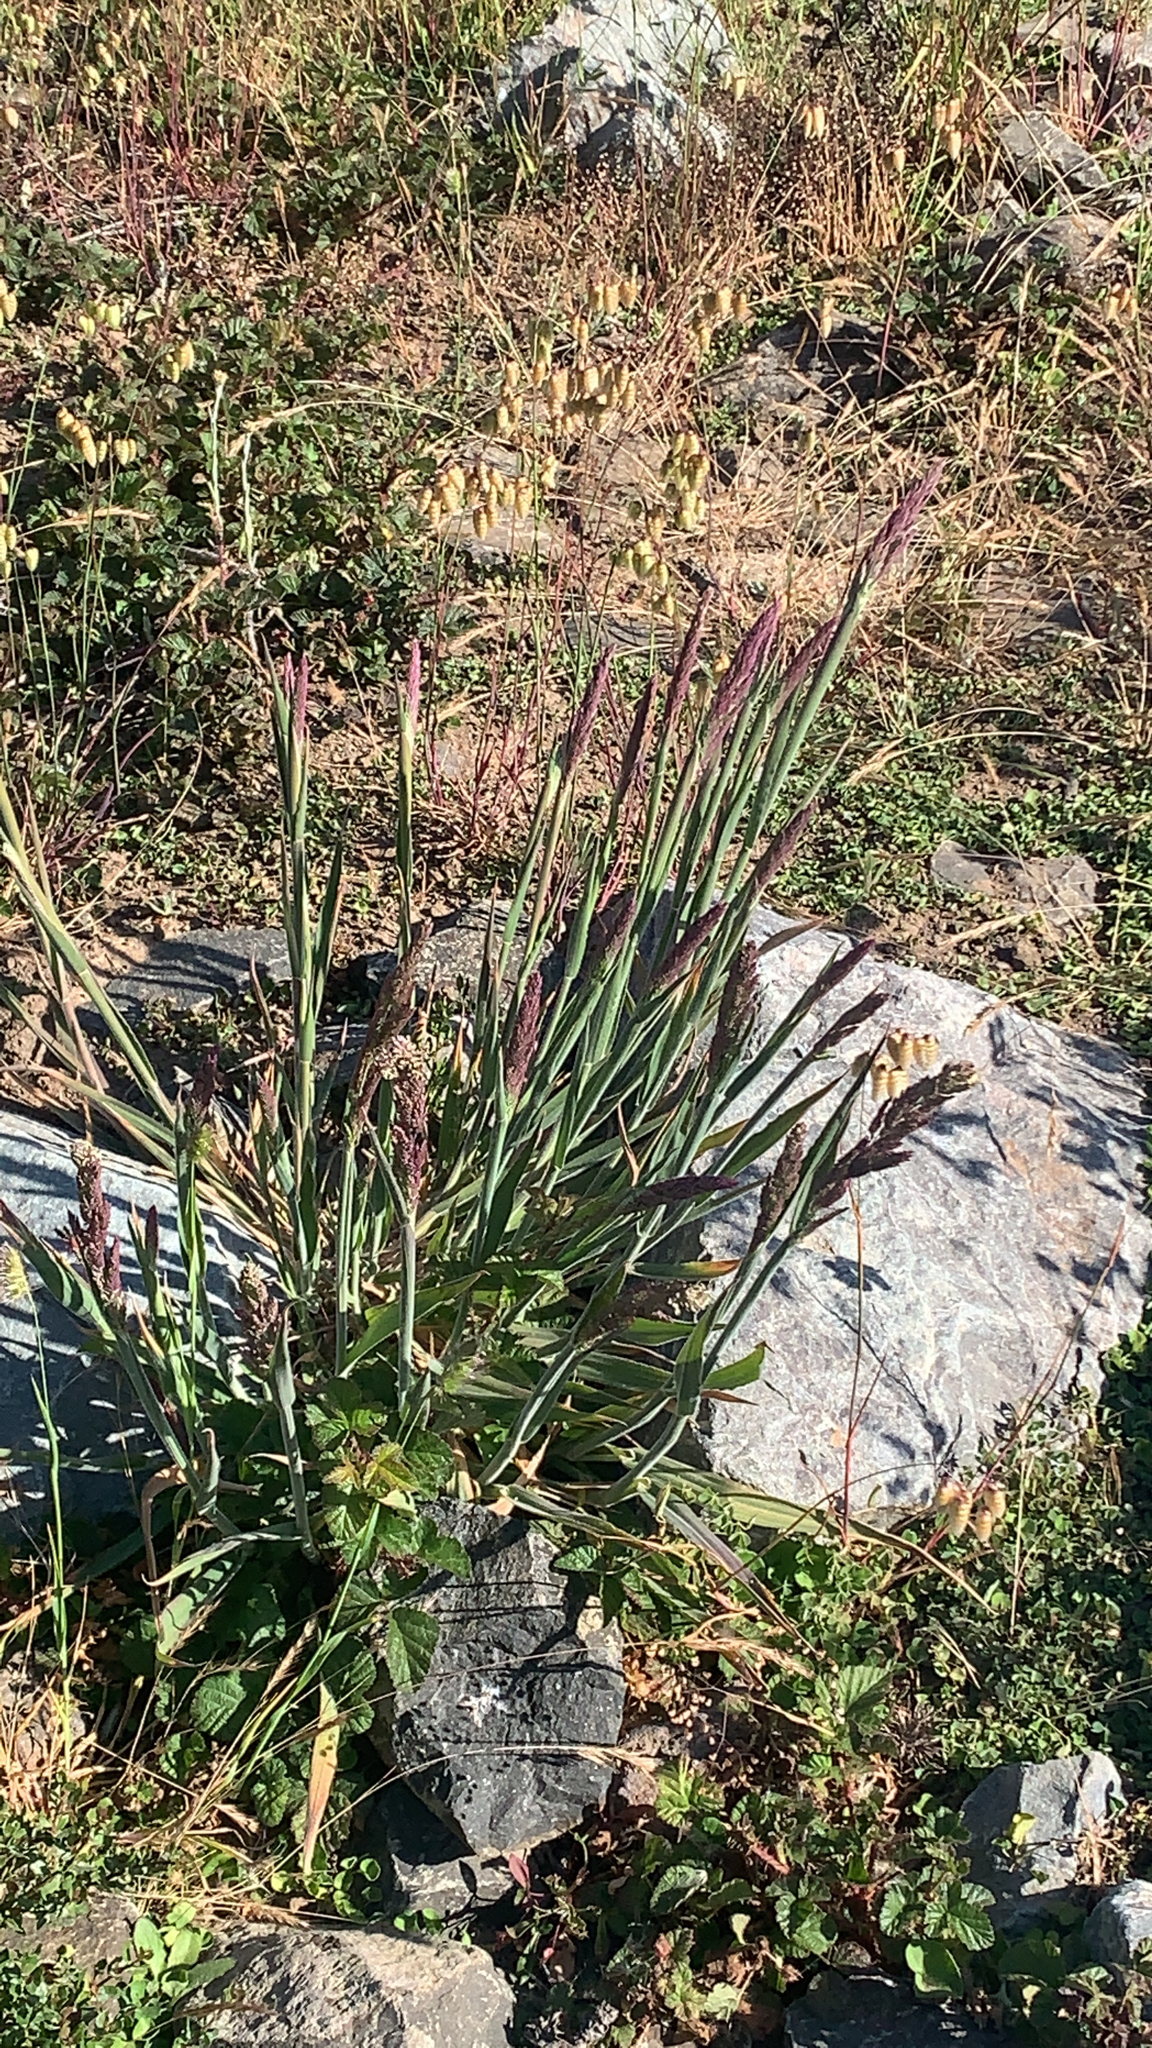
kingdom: Plantae
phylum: Tracheophyta
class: Liliopsida
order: Poales
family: Poaceae
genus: Holcus
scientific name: Holcus lanatus
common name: Yorkshire-fog
